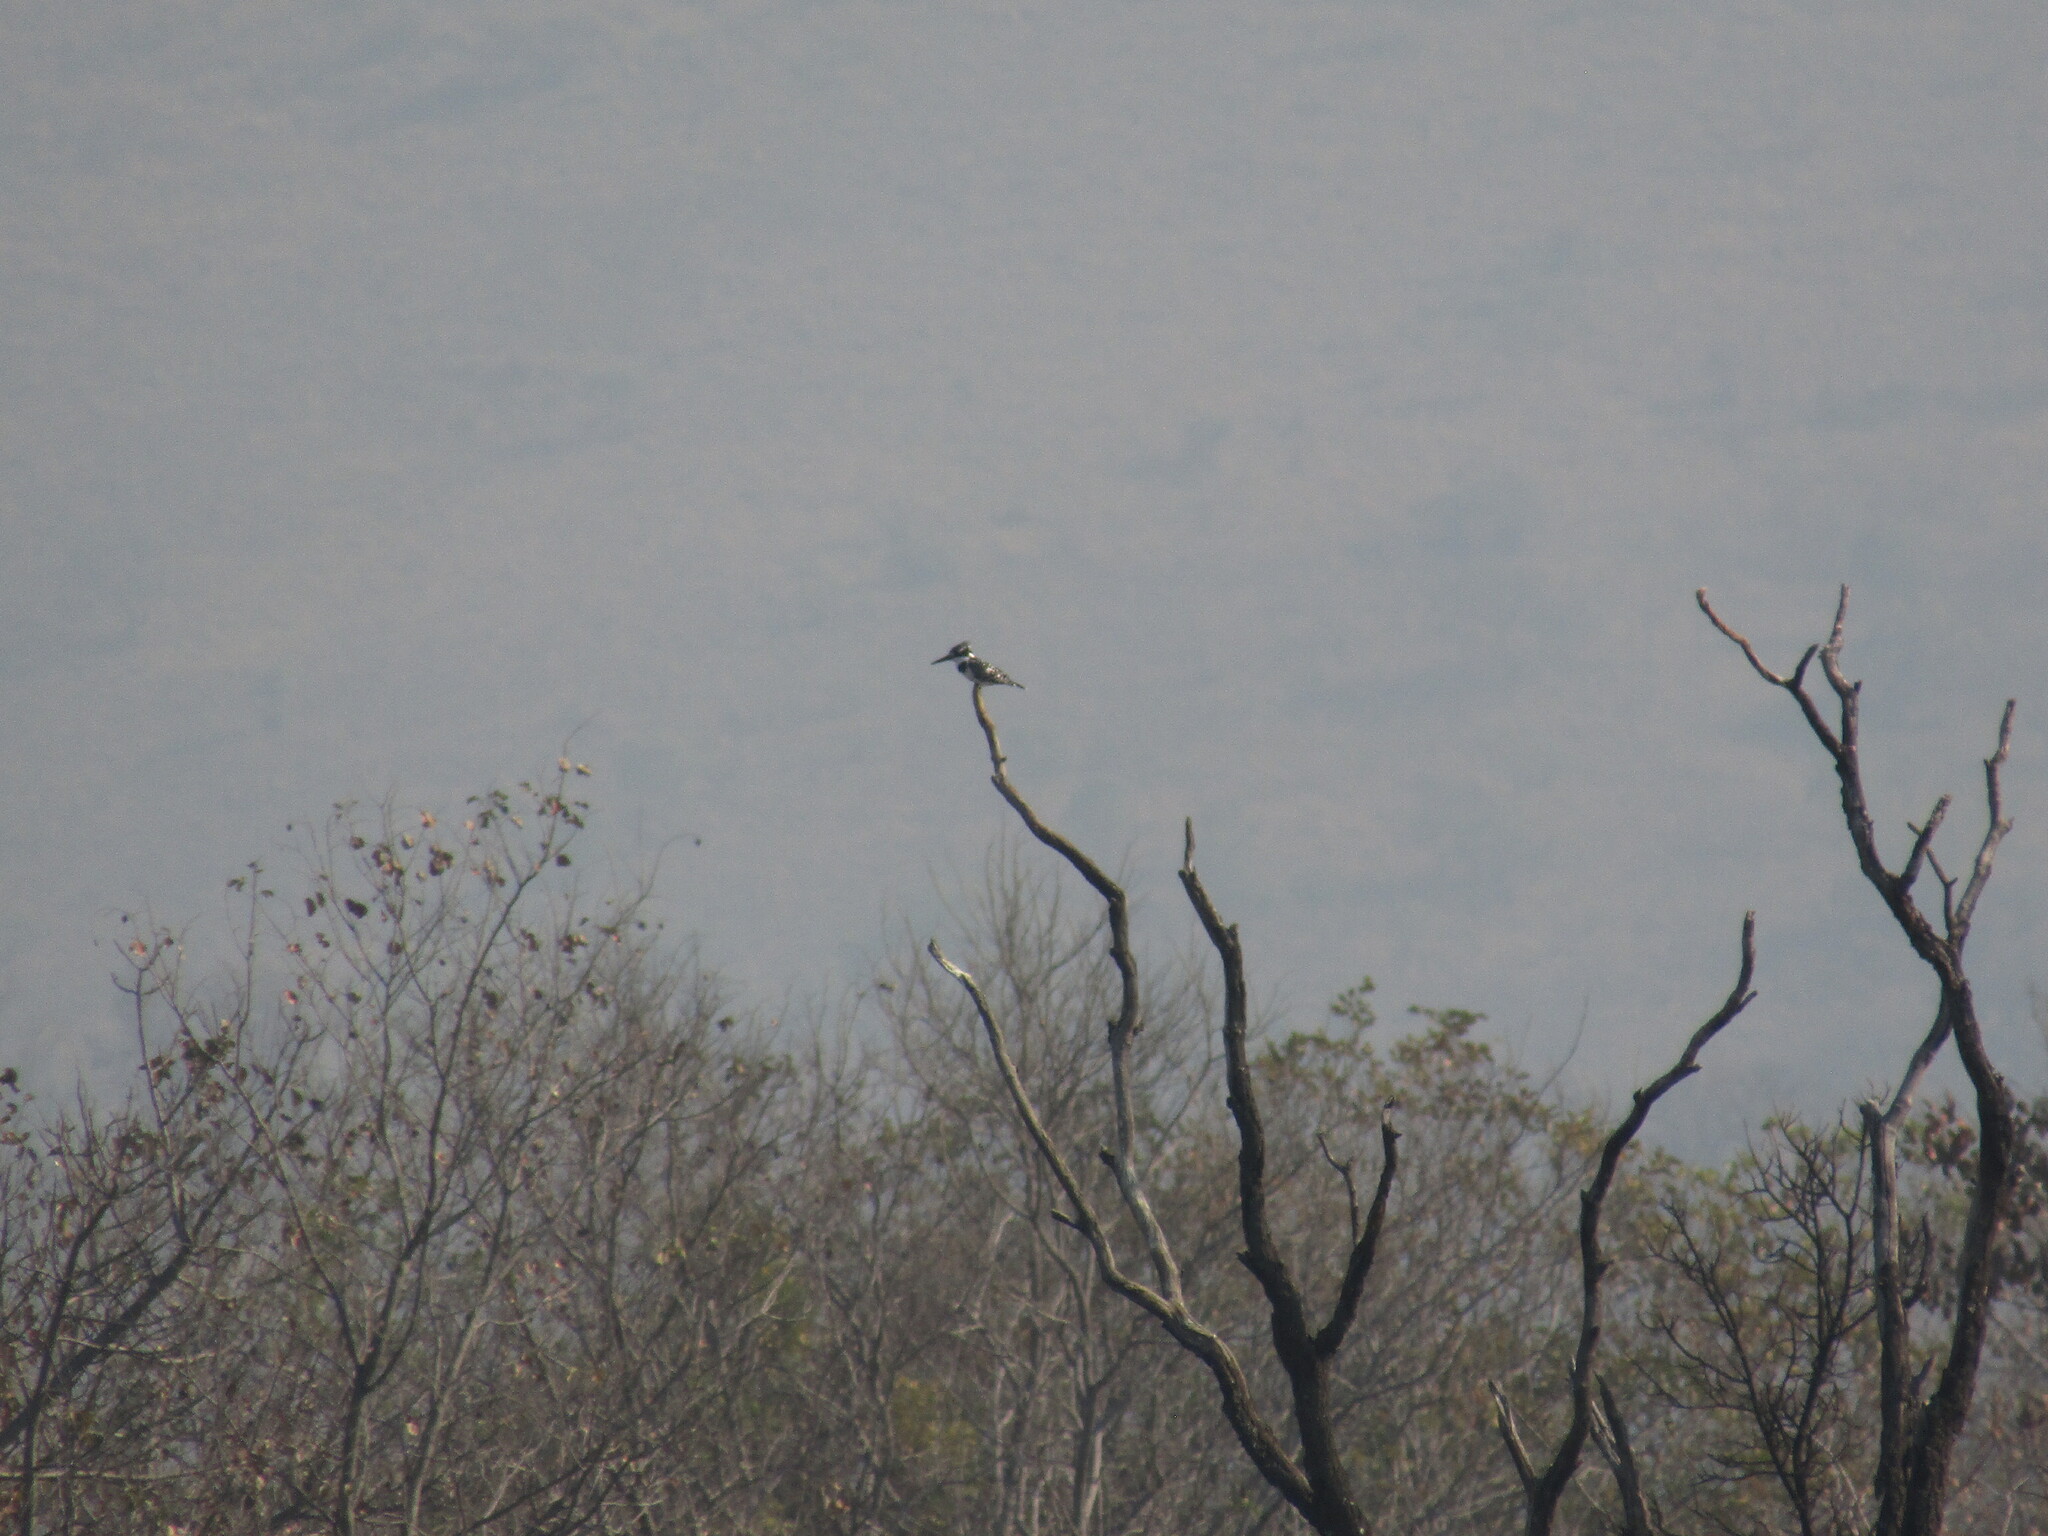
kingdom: Animalia
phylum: Chordata
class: Aves
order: Coraciiformes
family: Alcedinidae
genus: Ceryle
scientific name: Ceryle rudis
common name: Pied kingfisher
